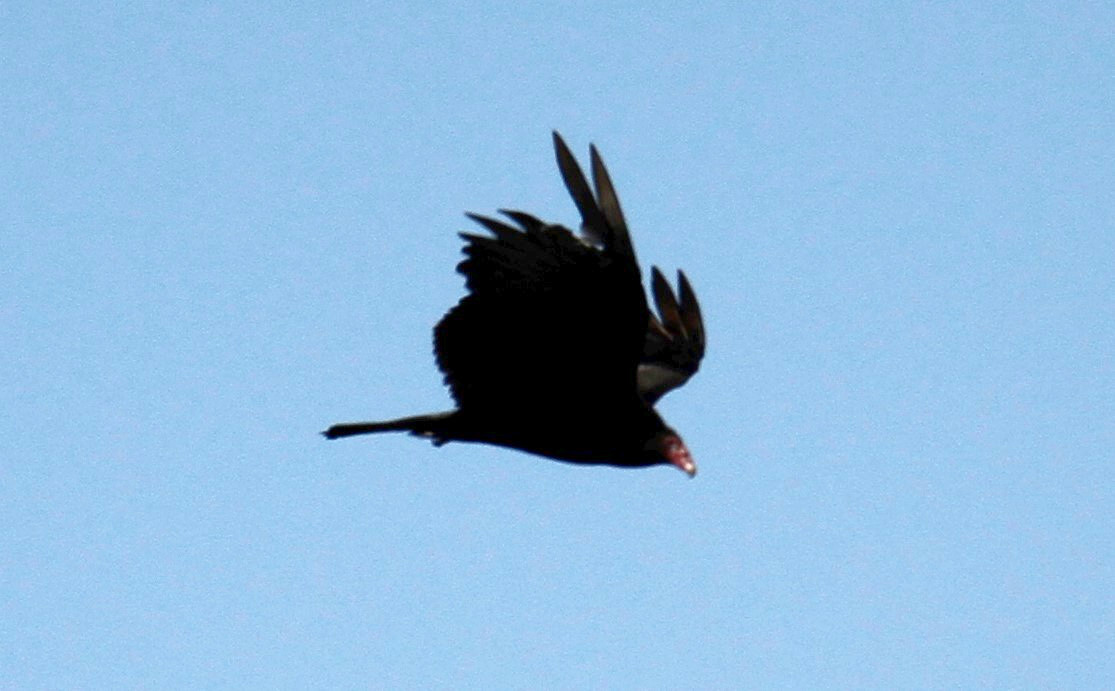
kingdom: Animalia
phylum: Chordata
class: Aves
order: Accipitriformes
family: Cathartidae
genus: Cathartes
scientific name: Cathartes aura
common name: Turkey vulture
